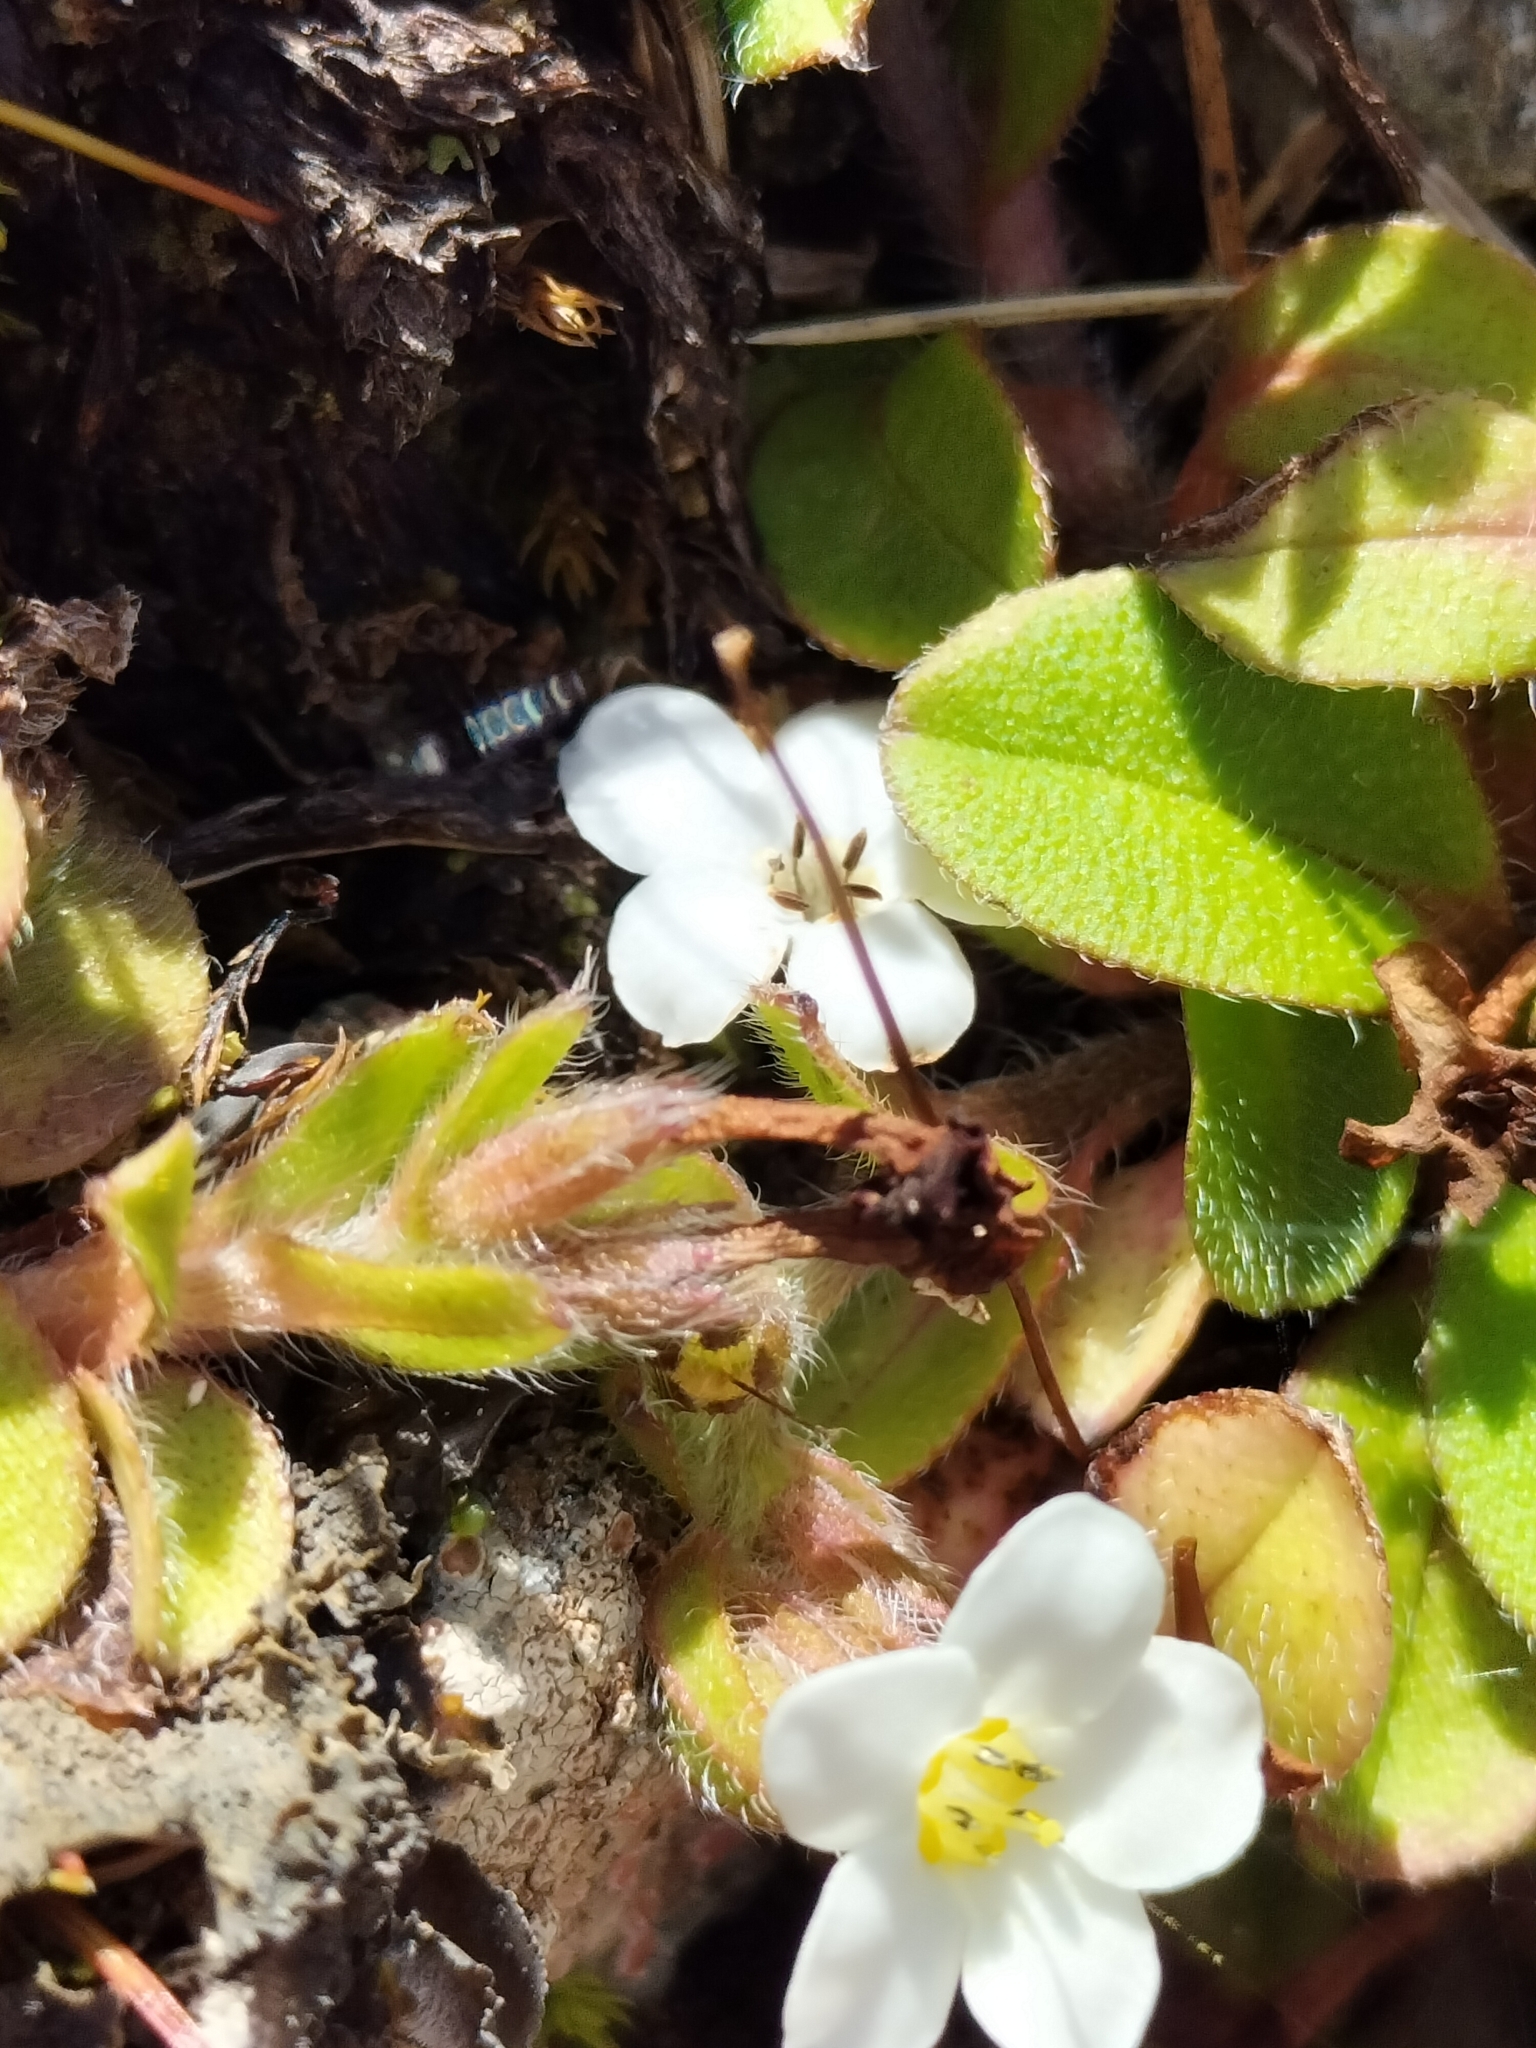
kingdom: Plantae
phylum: Tracheophyta
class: Magnoliopsida
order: Boraginales
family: Boraginaceae
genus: Myosotis
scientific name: Myosotis lyallii
